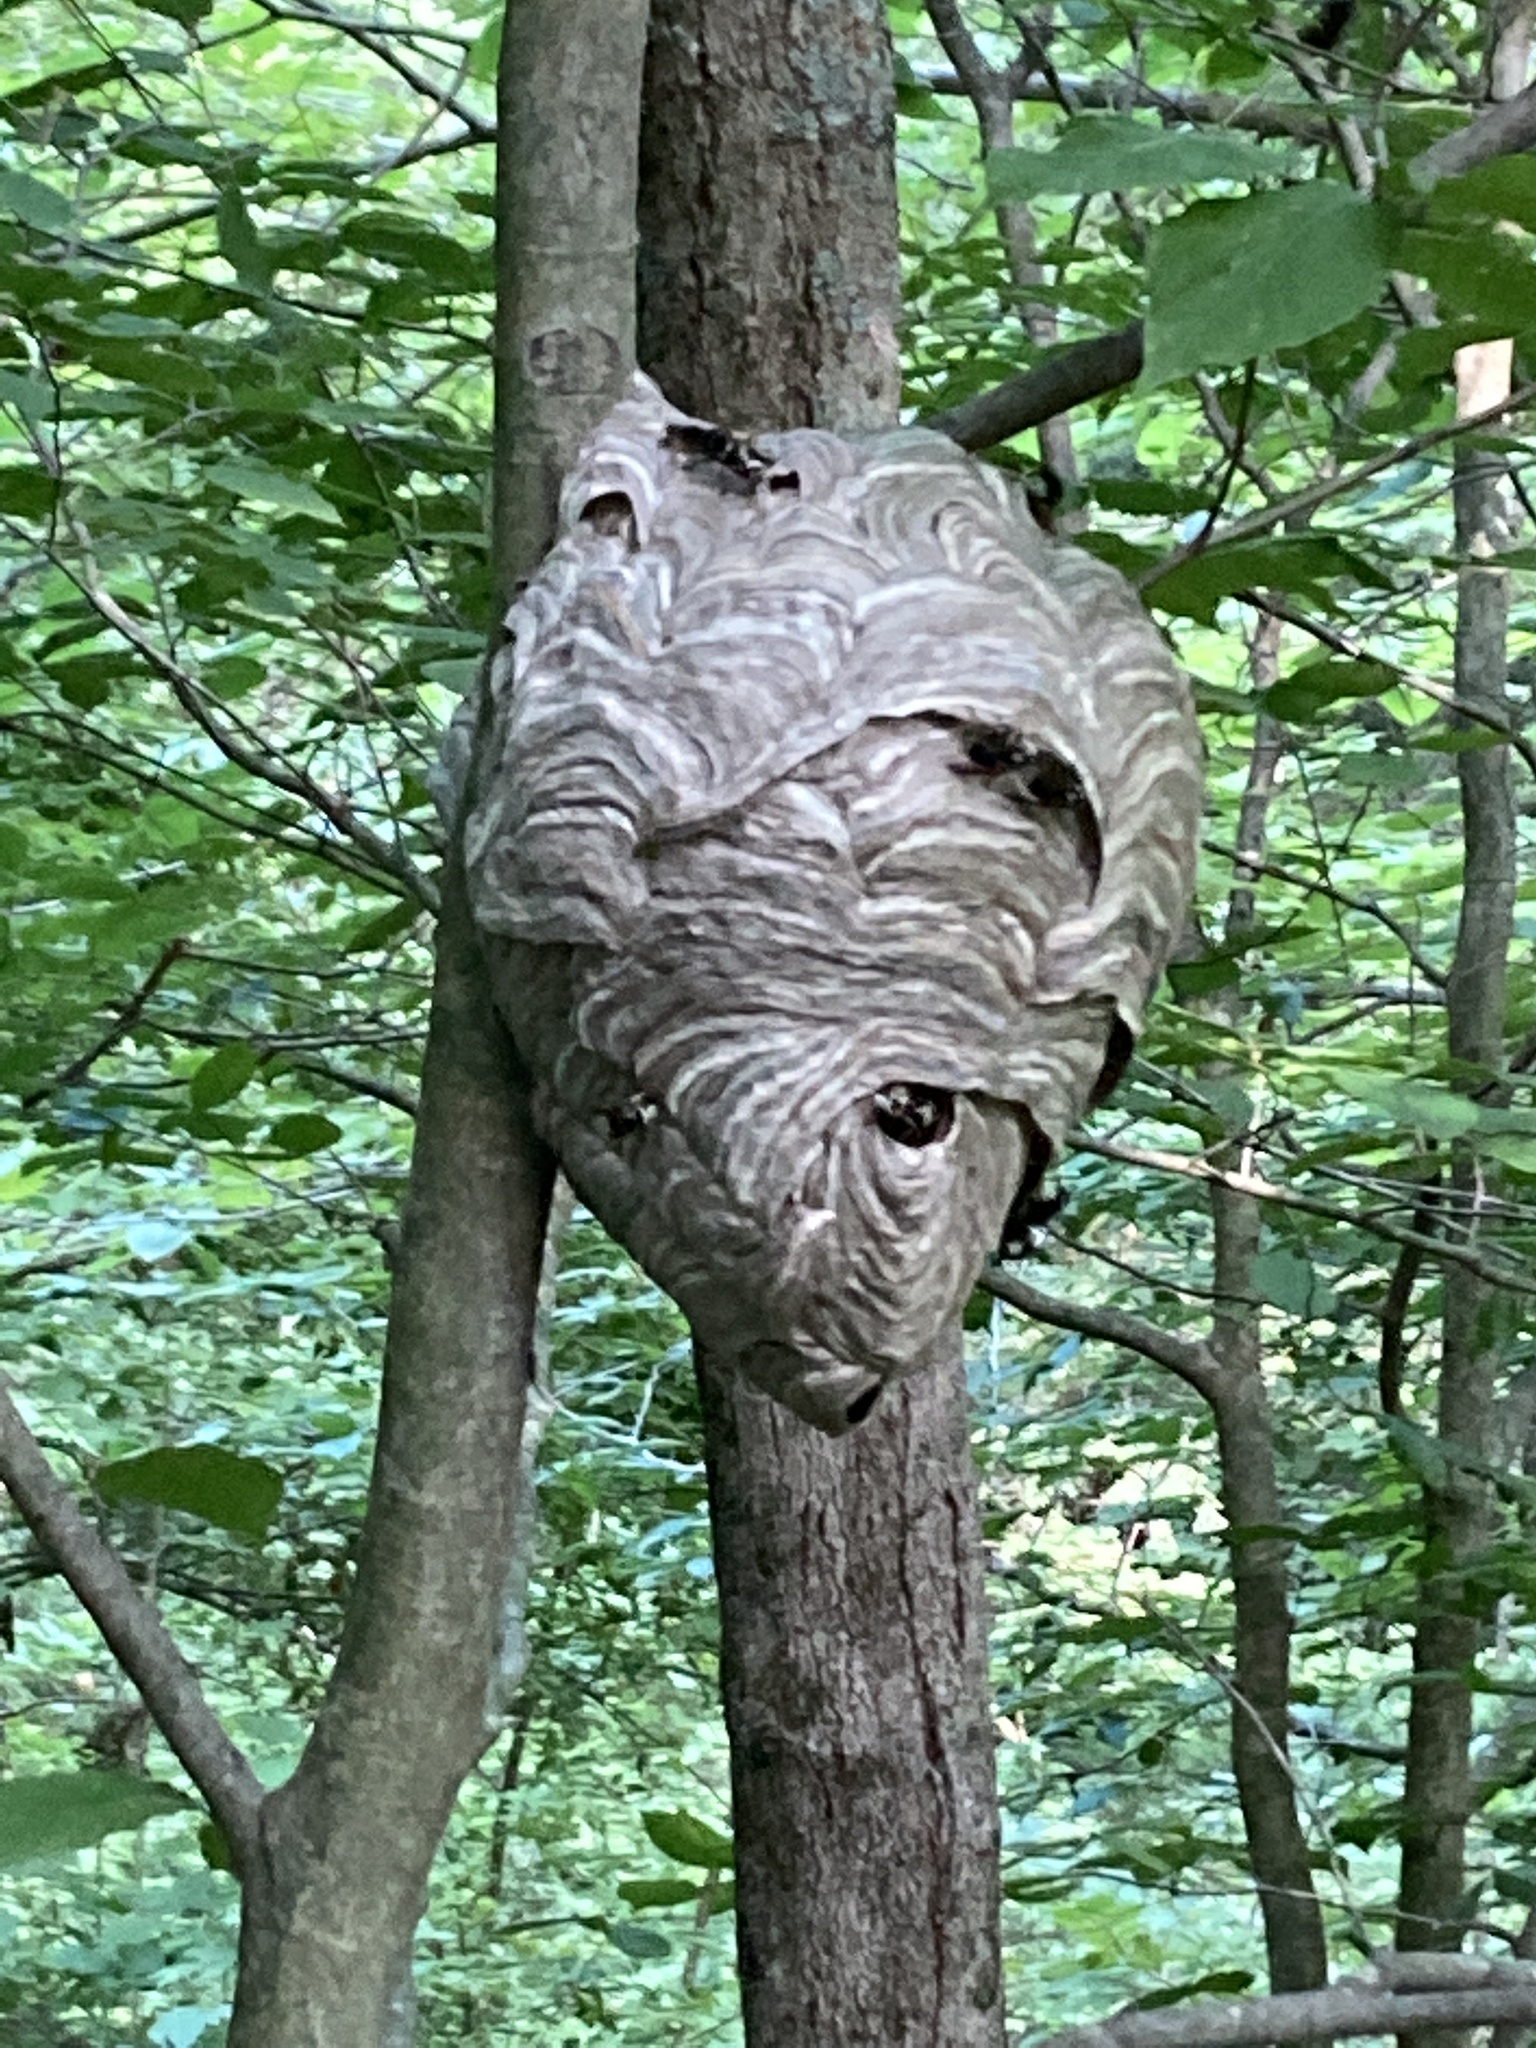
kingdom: Animalia
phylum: Arthropoda
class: Insecta
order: Hymenoptera
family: Vespidae
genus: Dolichovespula
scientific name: Dolichovespula maculata
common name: Bald-faced hornet
